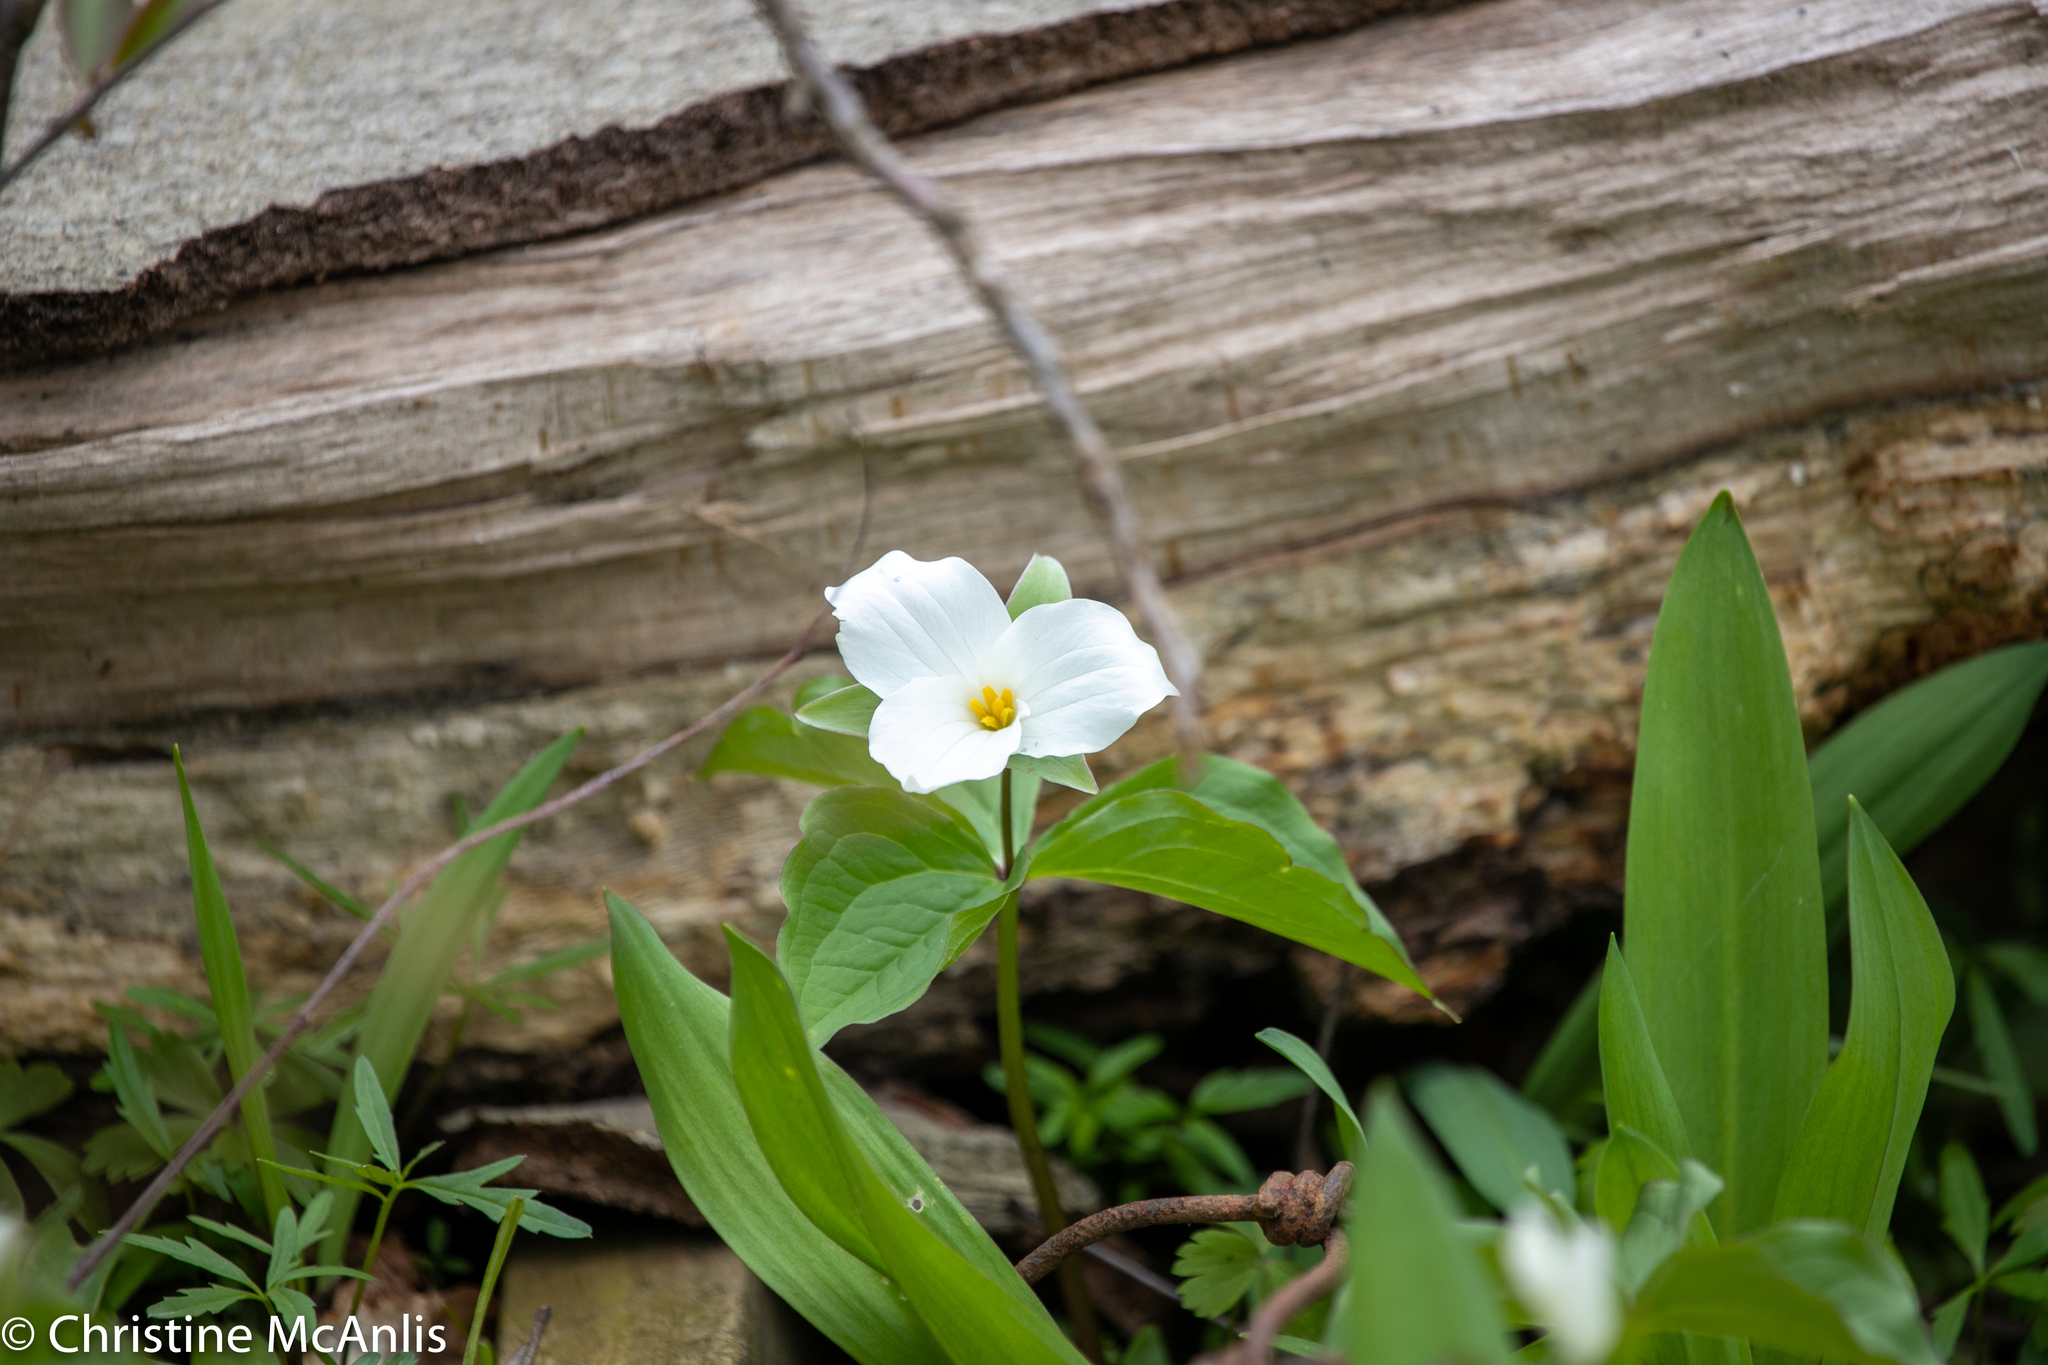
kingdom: Plantae
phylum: Tracheophyta
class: Liliopsida
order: Liliales
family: Melanthiaceae
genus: Trillium
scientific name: Trillium grandiflorum
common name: Great white trillium
